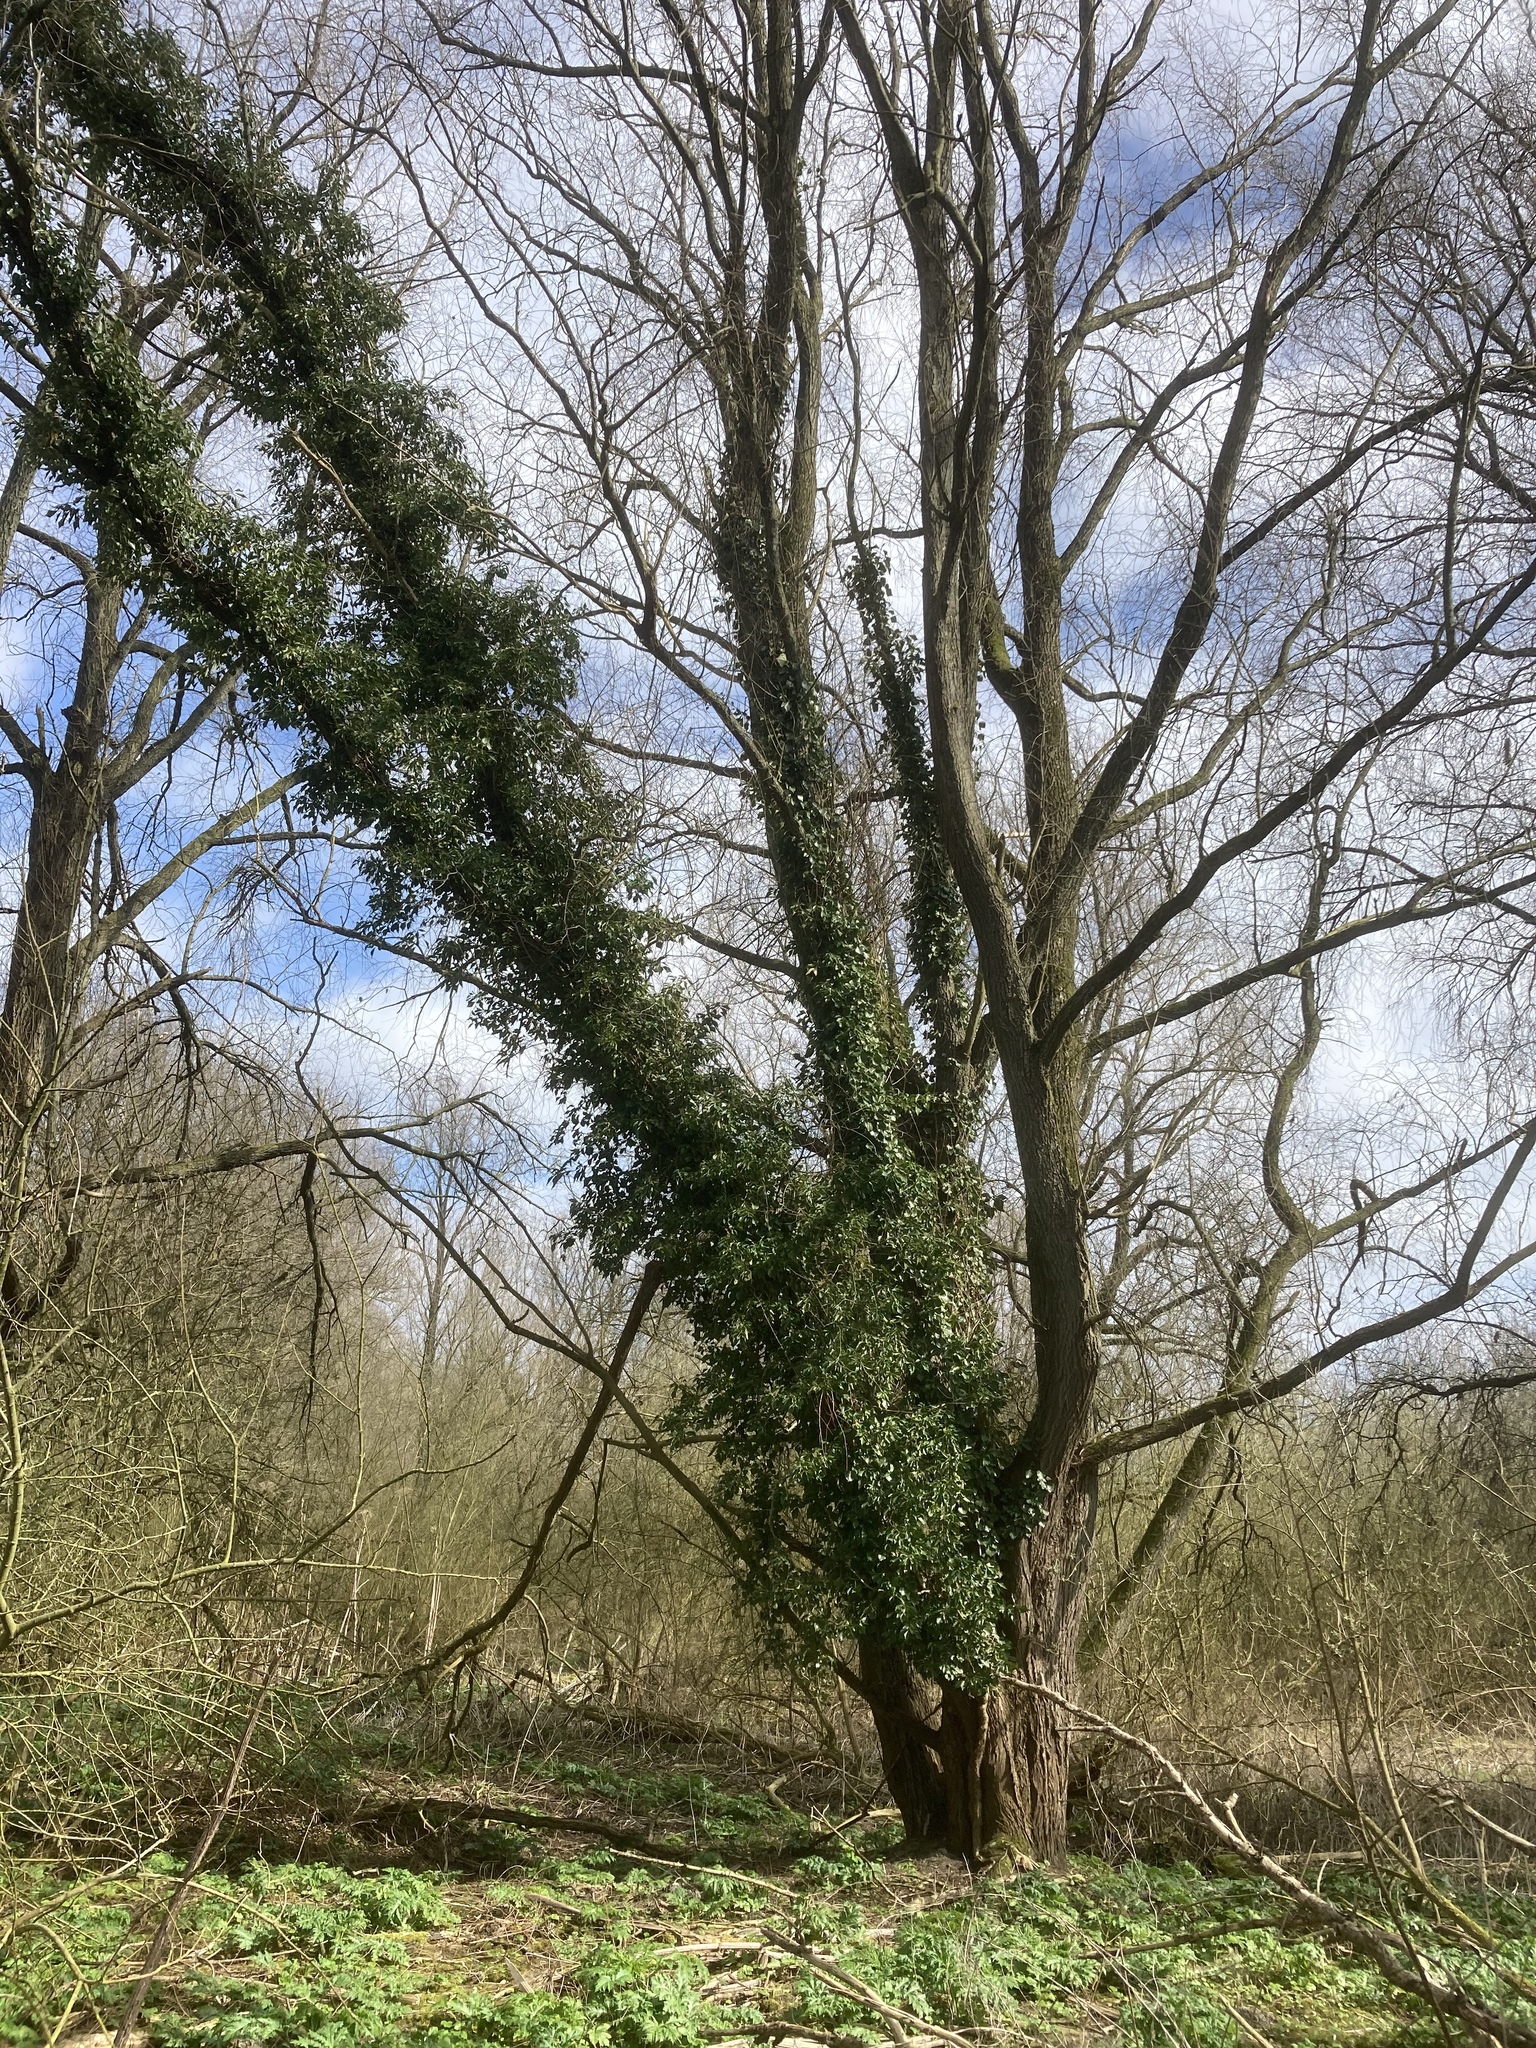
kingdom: Plantae
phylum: Tracheophyta
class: Magnoliopsida
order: Apiales
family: Araliaceae
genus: Hedera
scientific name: Hedera helix
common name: Ivy
